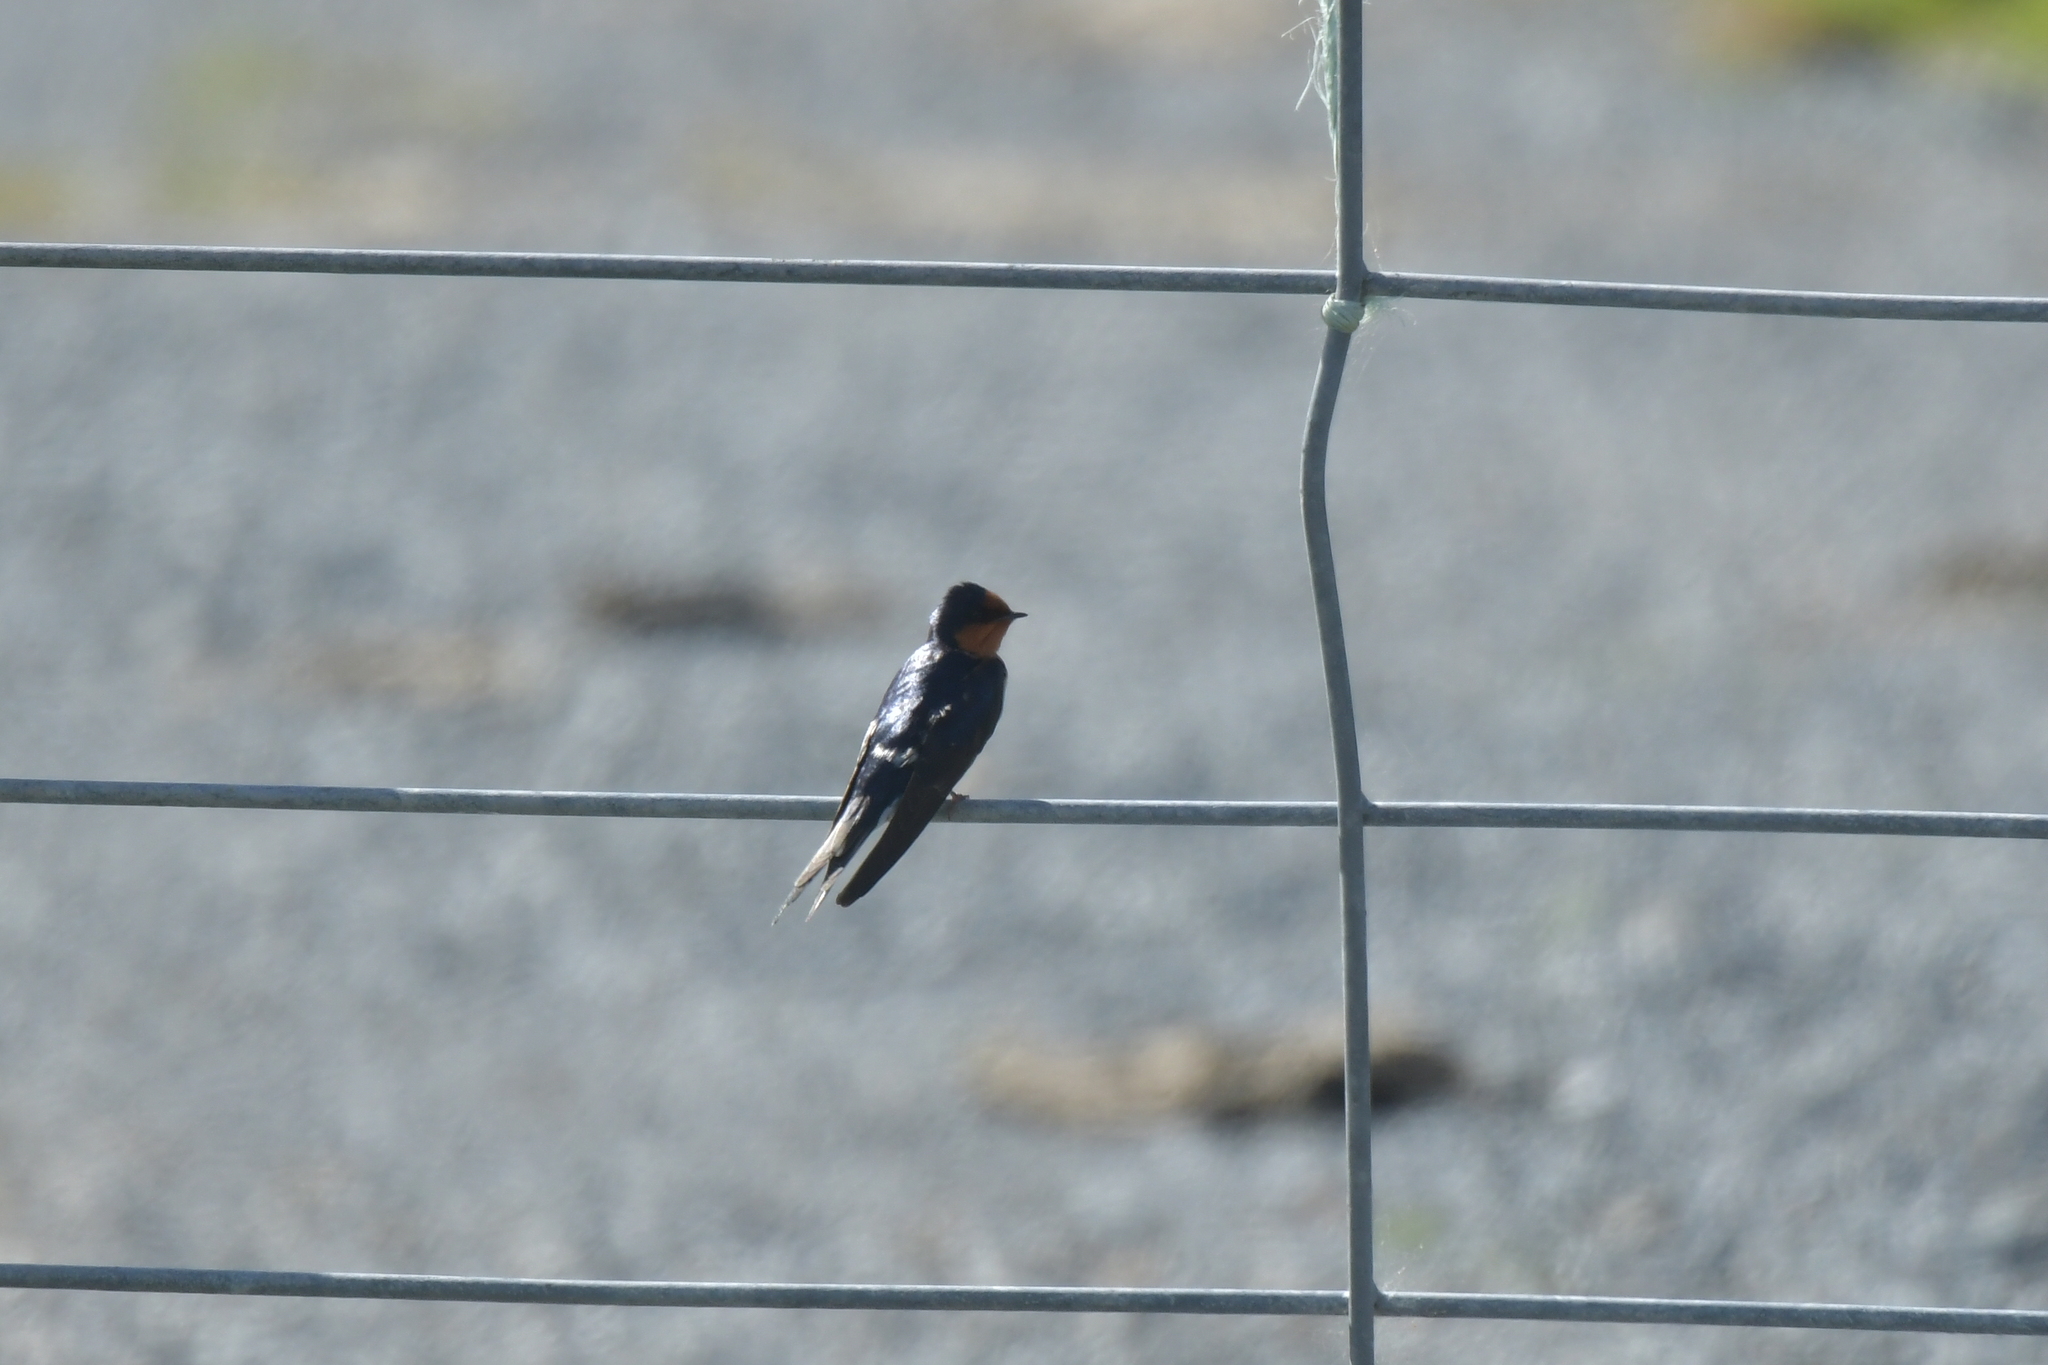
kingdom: Animalia
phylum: Chordata
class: Aves
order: Passeriformes
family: Hirundinidae
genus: Hirundo
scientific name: Hirundo neoxena
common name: Welcome swallow
